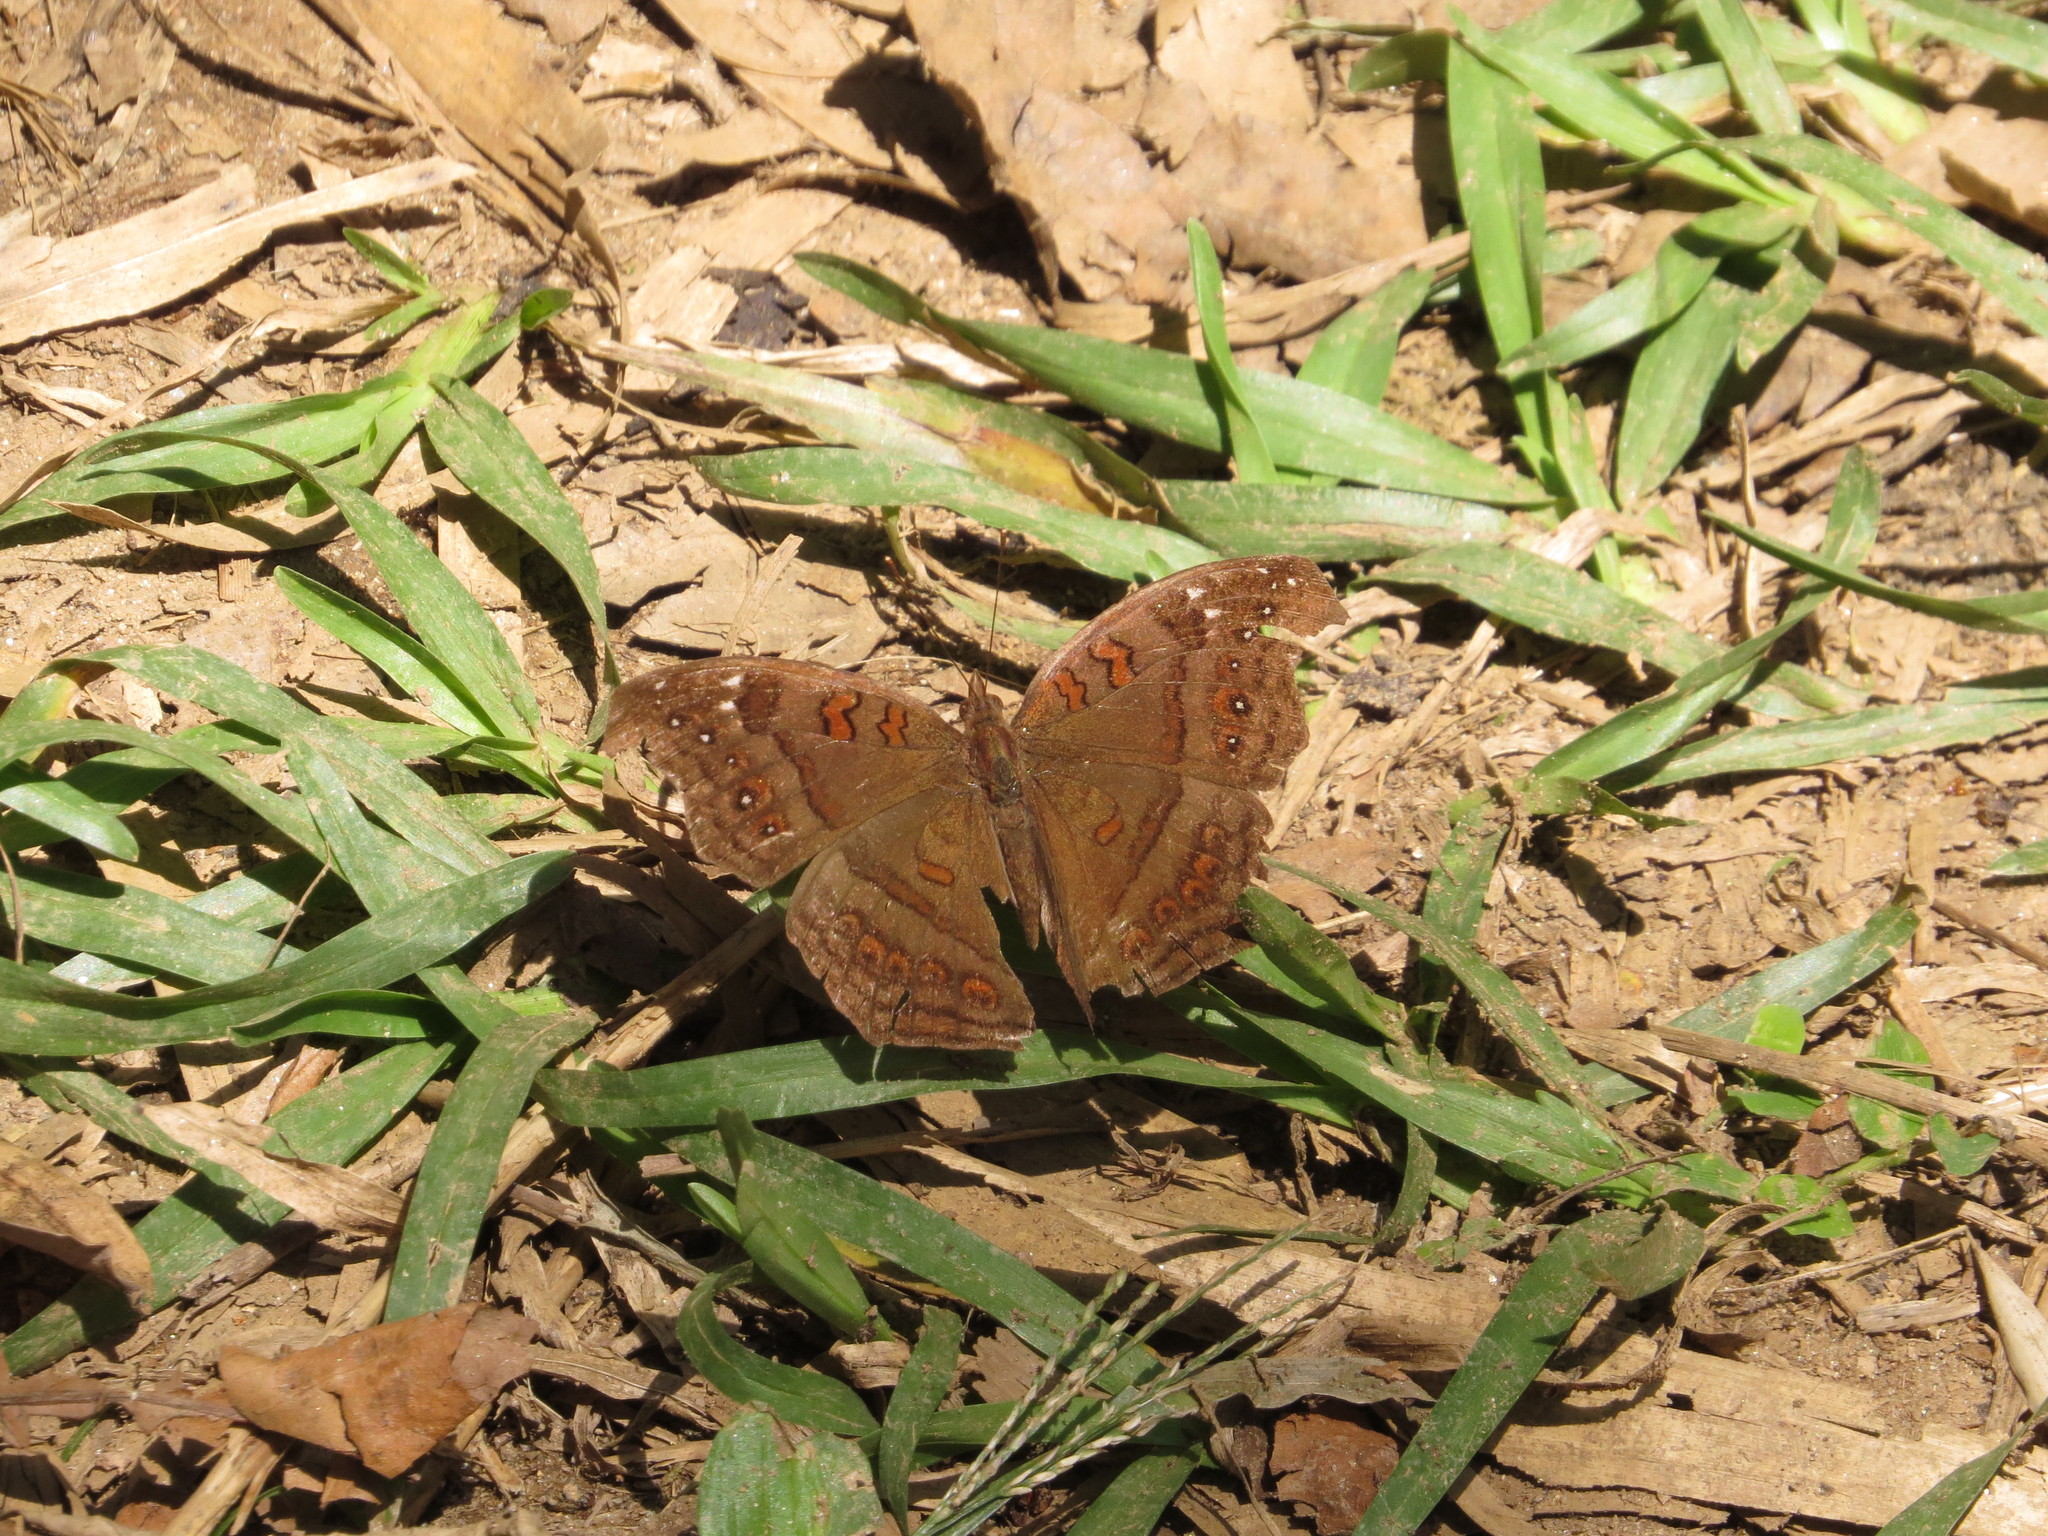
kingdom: Animalia
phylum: Arthropoda
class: Insecta
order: Lepidoptera
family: Nymphalidae
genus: Junonia
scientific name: Junonia goudotii
